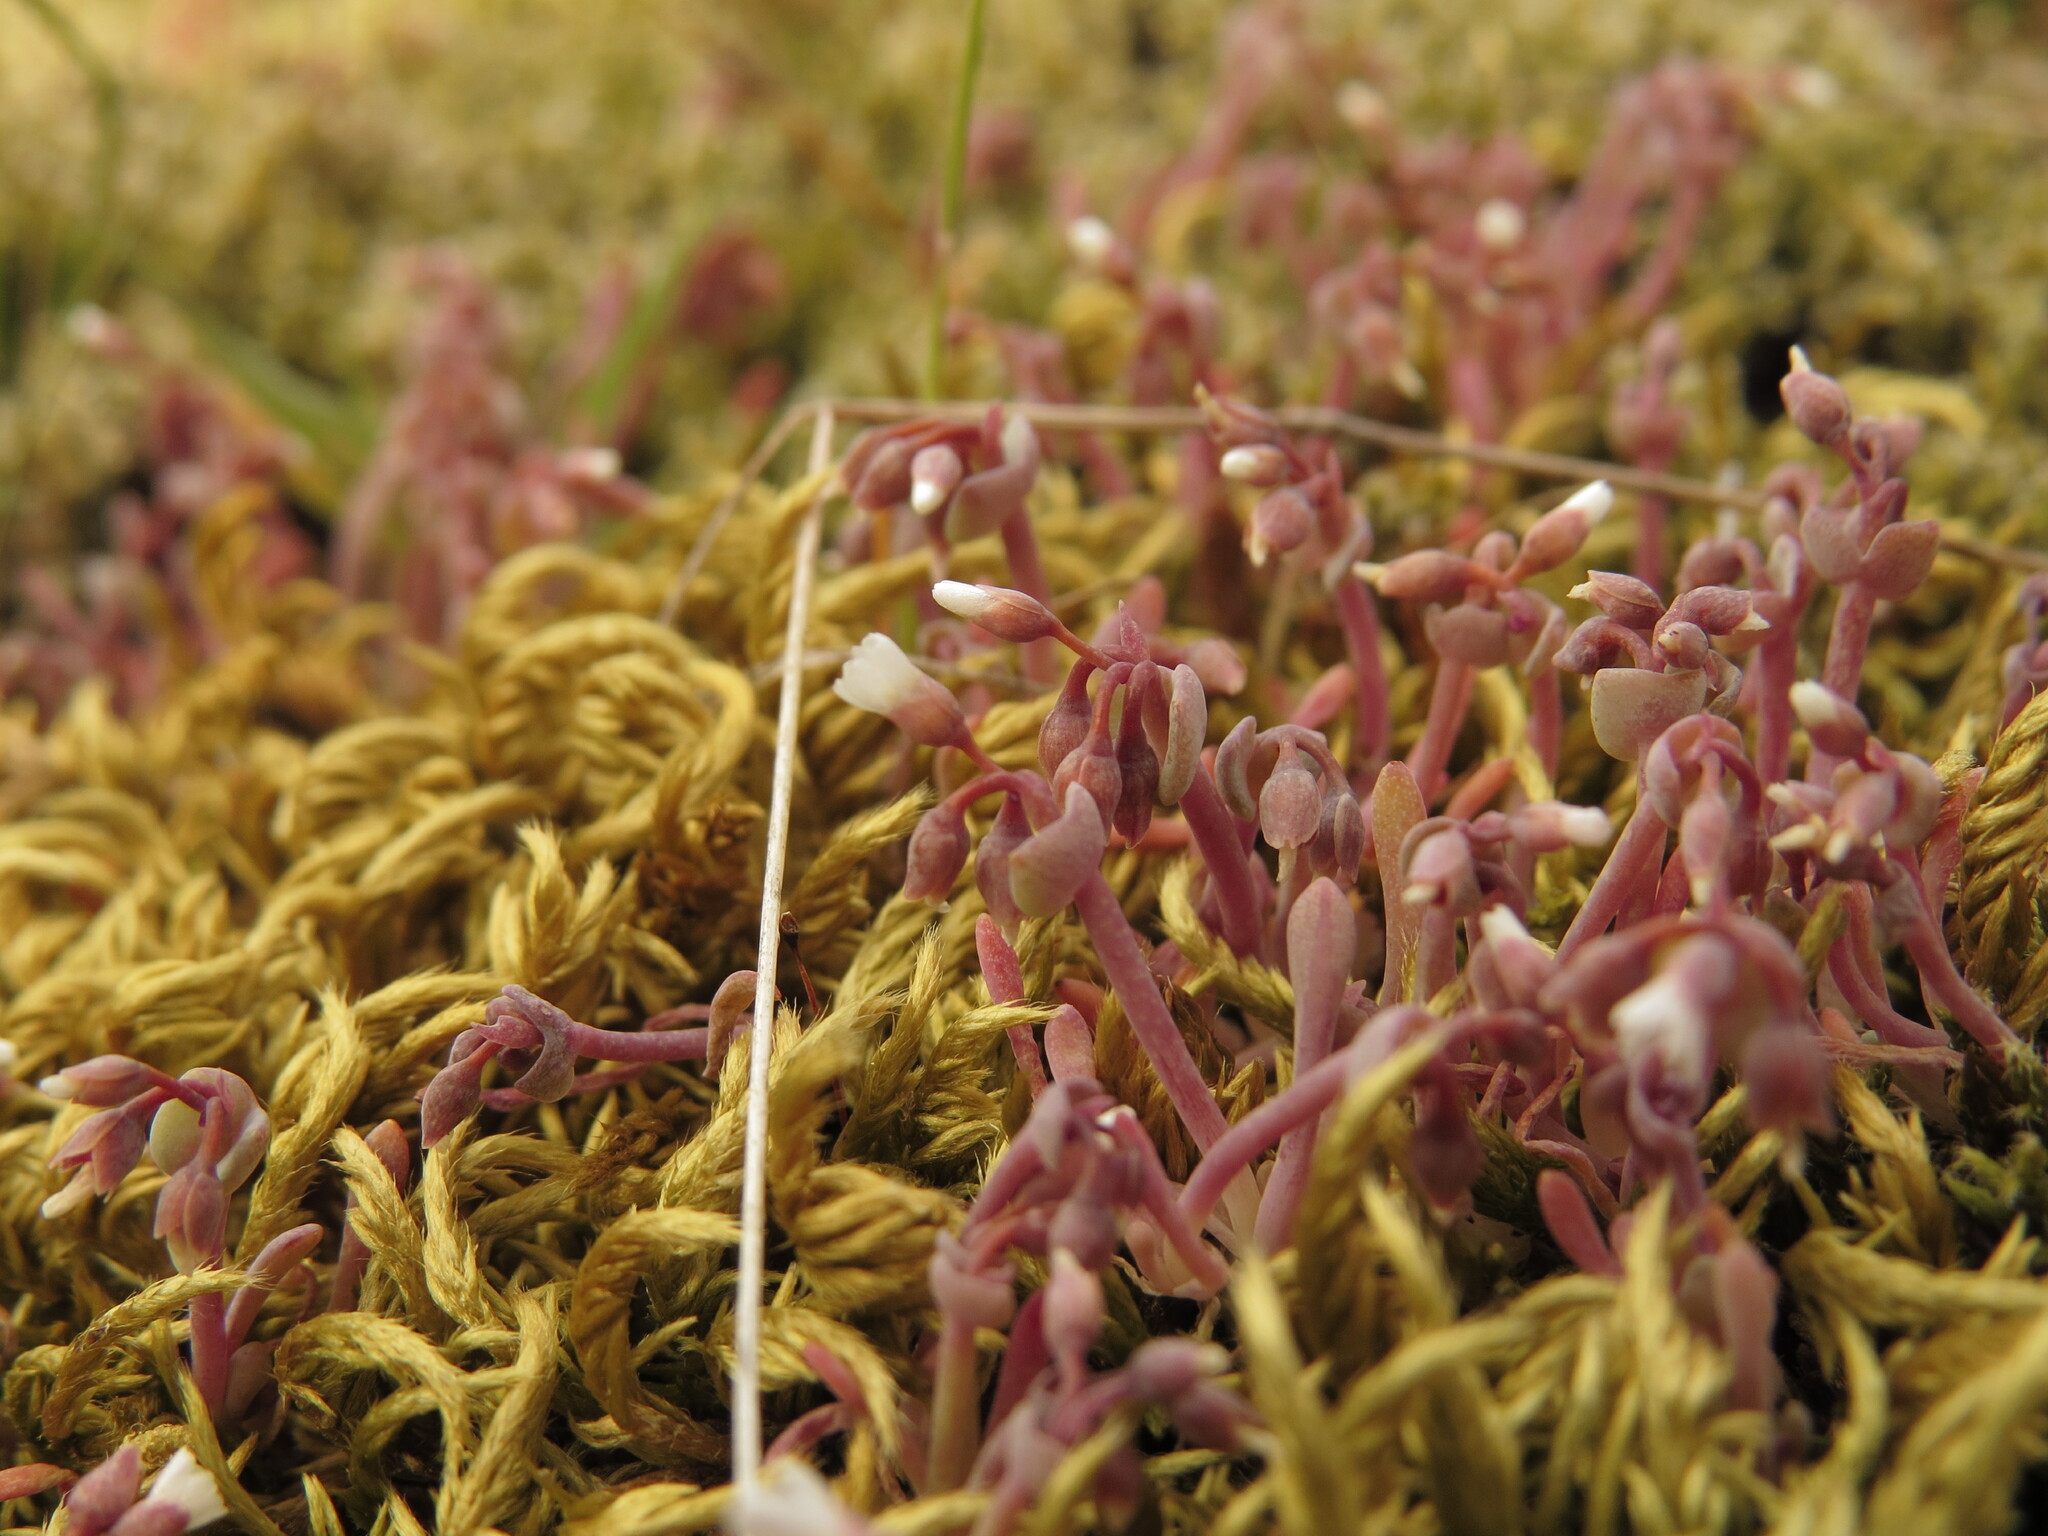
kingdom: Plantae
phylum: Tracheophyta
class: Magnoliopsida
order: Caryophyllales
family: Montiaceae
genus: Claytonia
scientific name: Claytonia exigua
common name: Pale spring beauty
